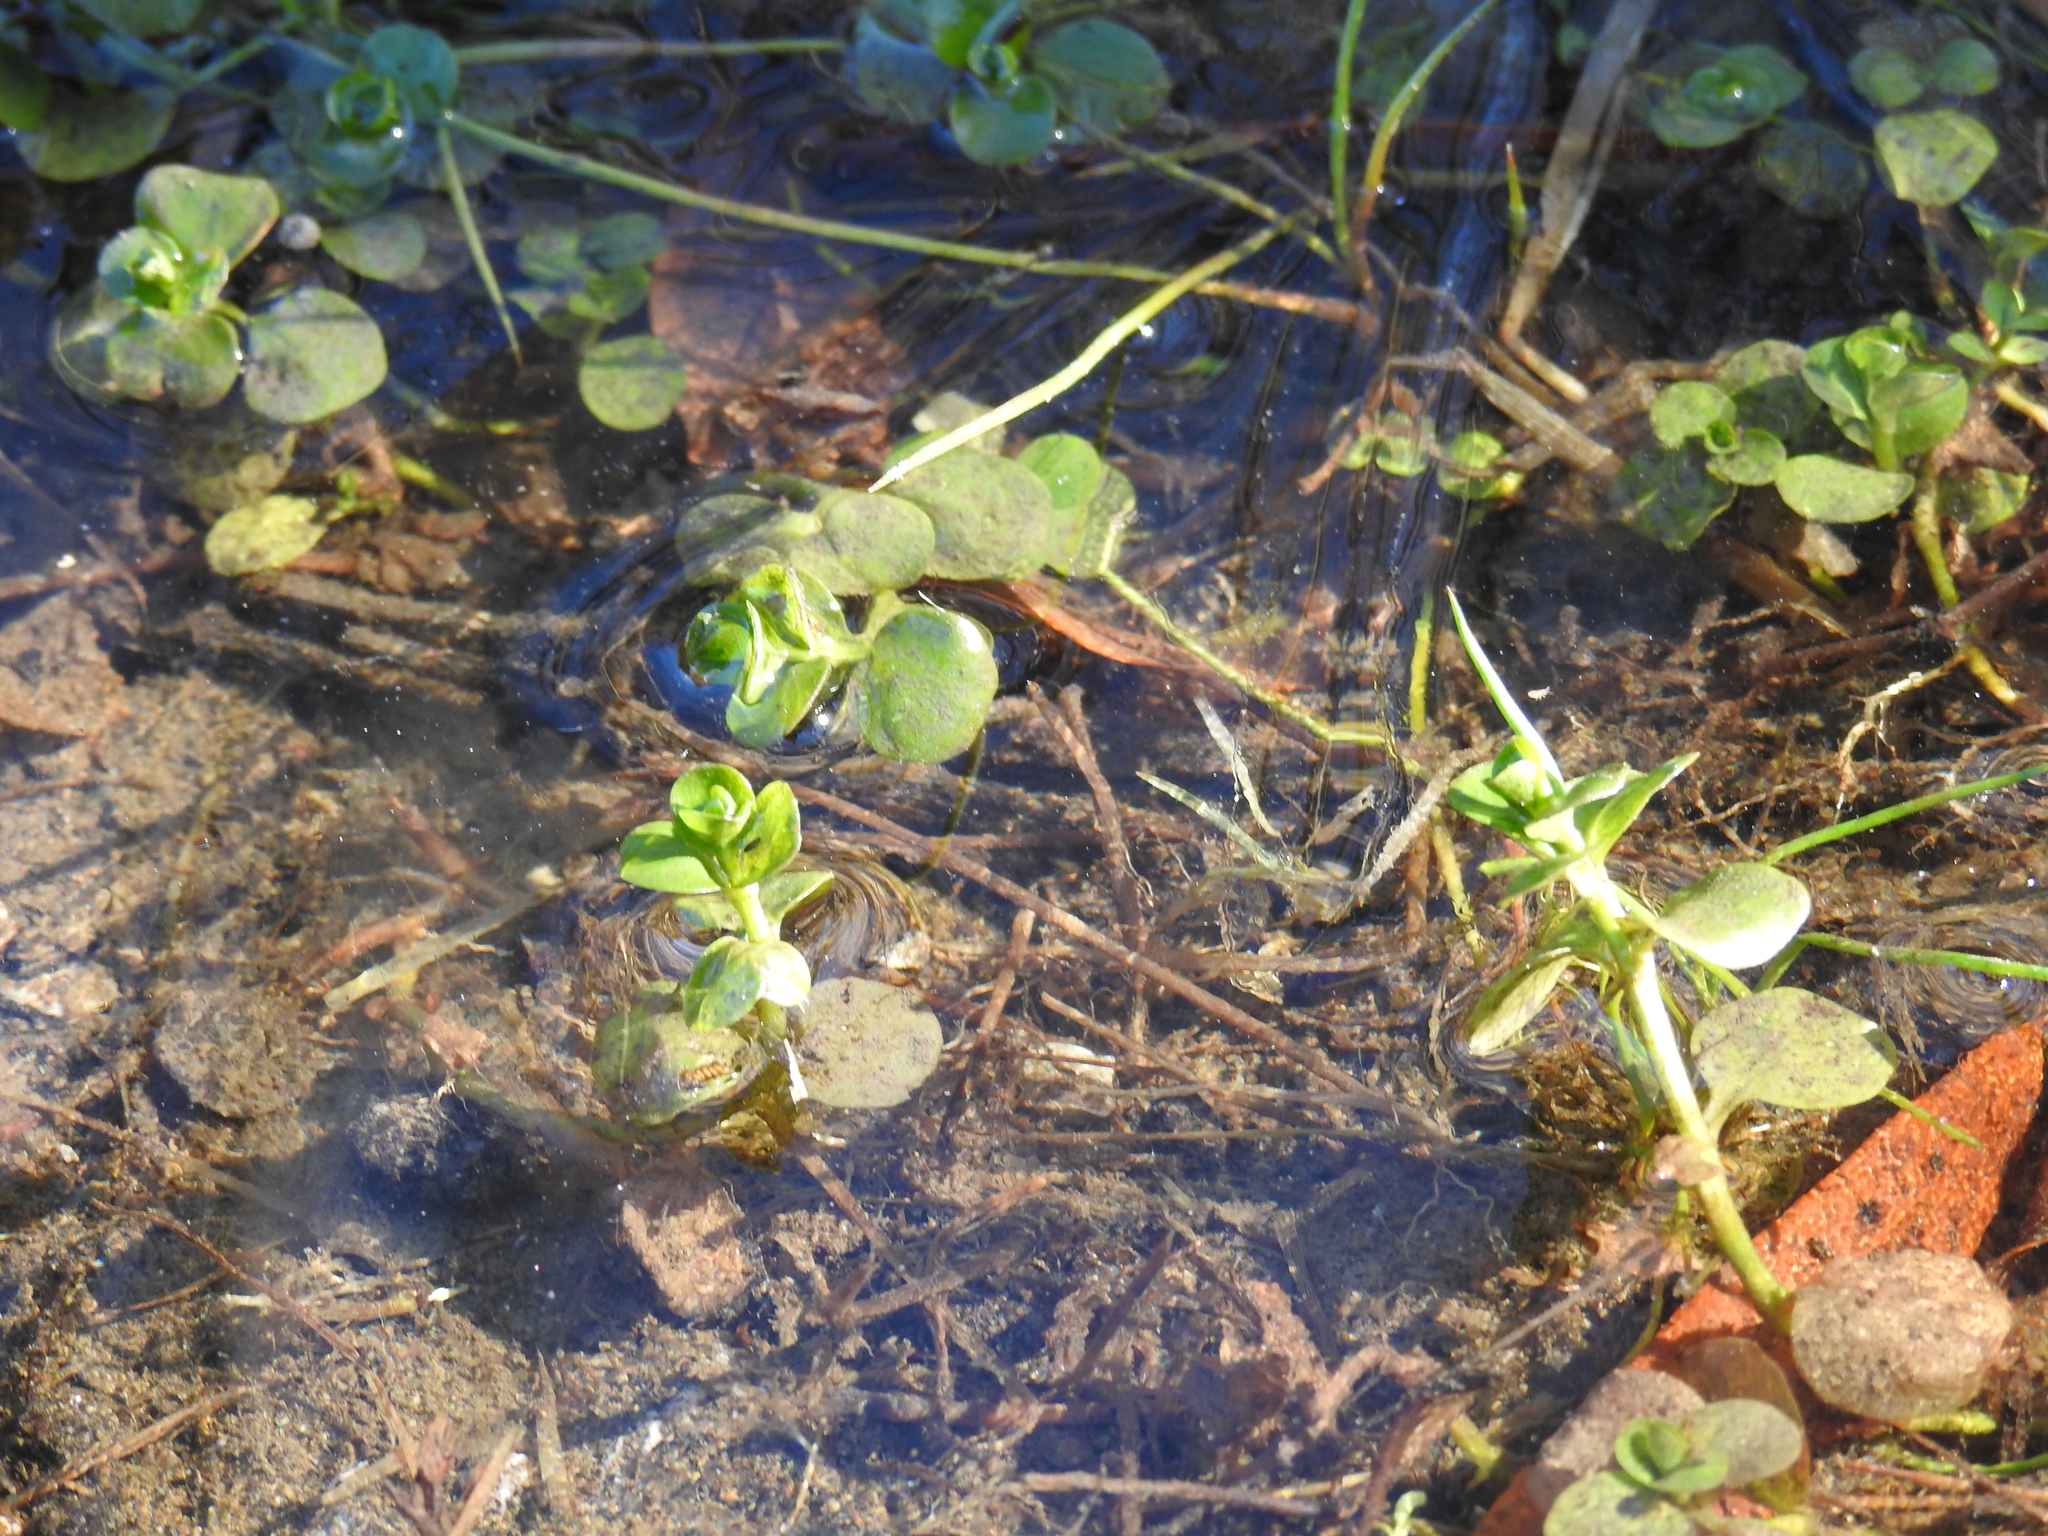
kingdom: Plantae
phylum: Tracheophyta
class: Magnoliopsida
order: Ericales
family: Primulaceae
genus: Lysimachia
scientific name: Lysimachia nummularia
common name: Moneywort
